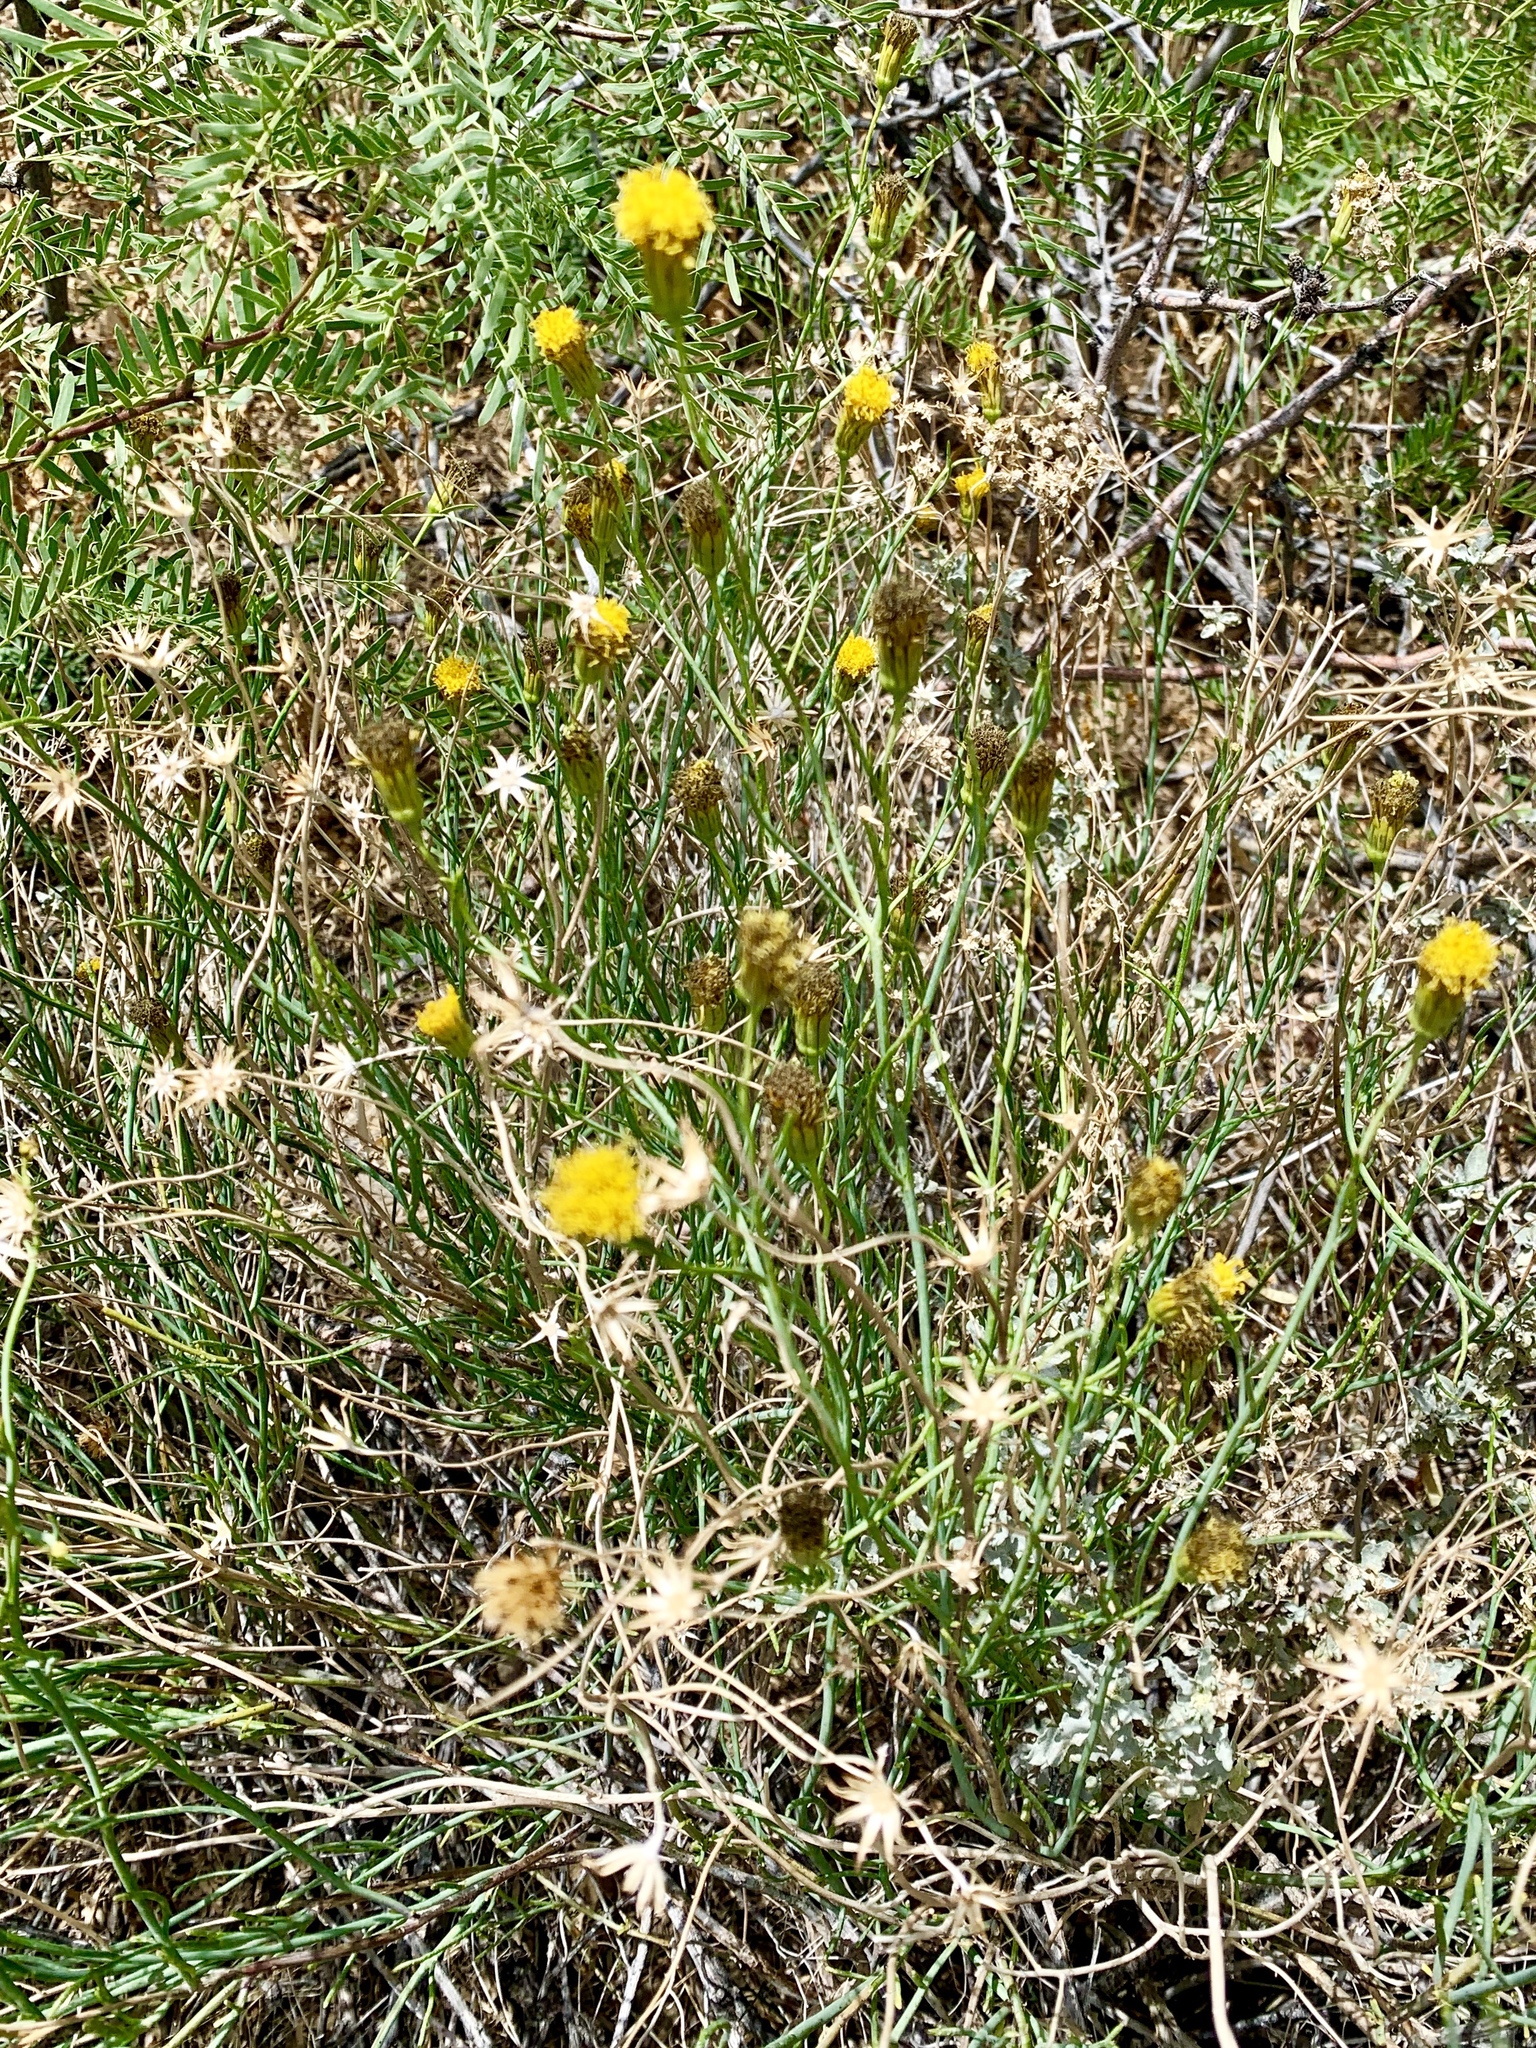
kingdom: Plantae
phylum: Tracheophyta
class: Magnoliopsida
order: Asterales
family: Asteraceae
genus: Porophyllum
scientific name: Porophyllum scoparium
